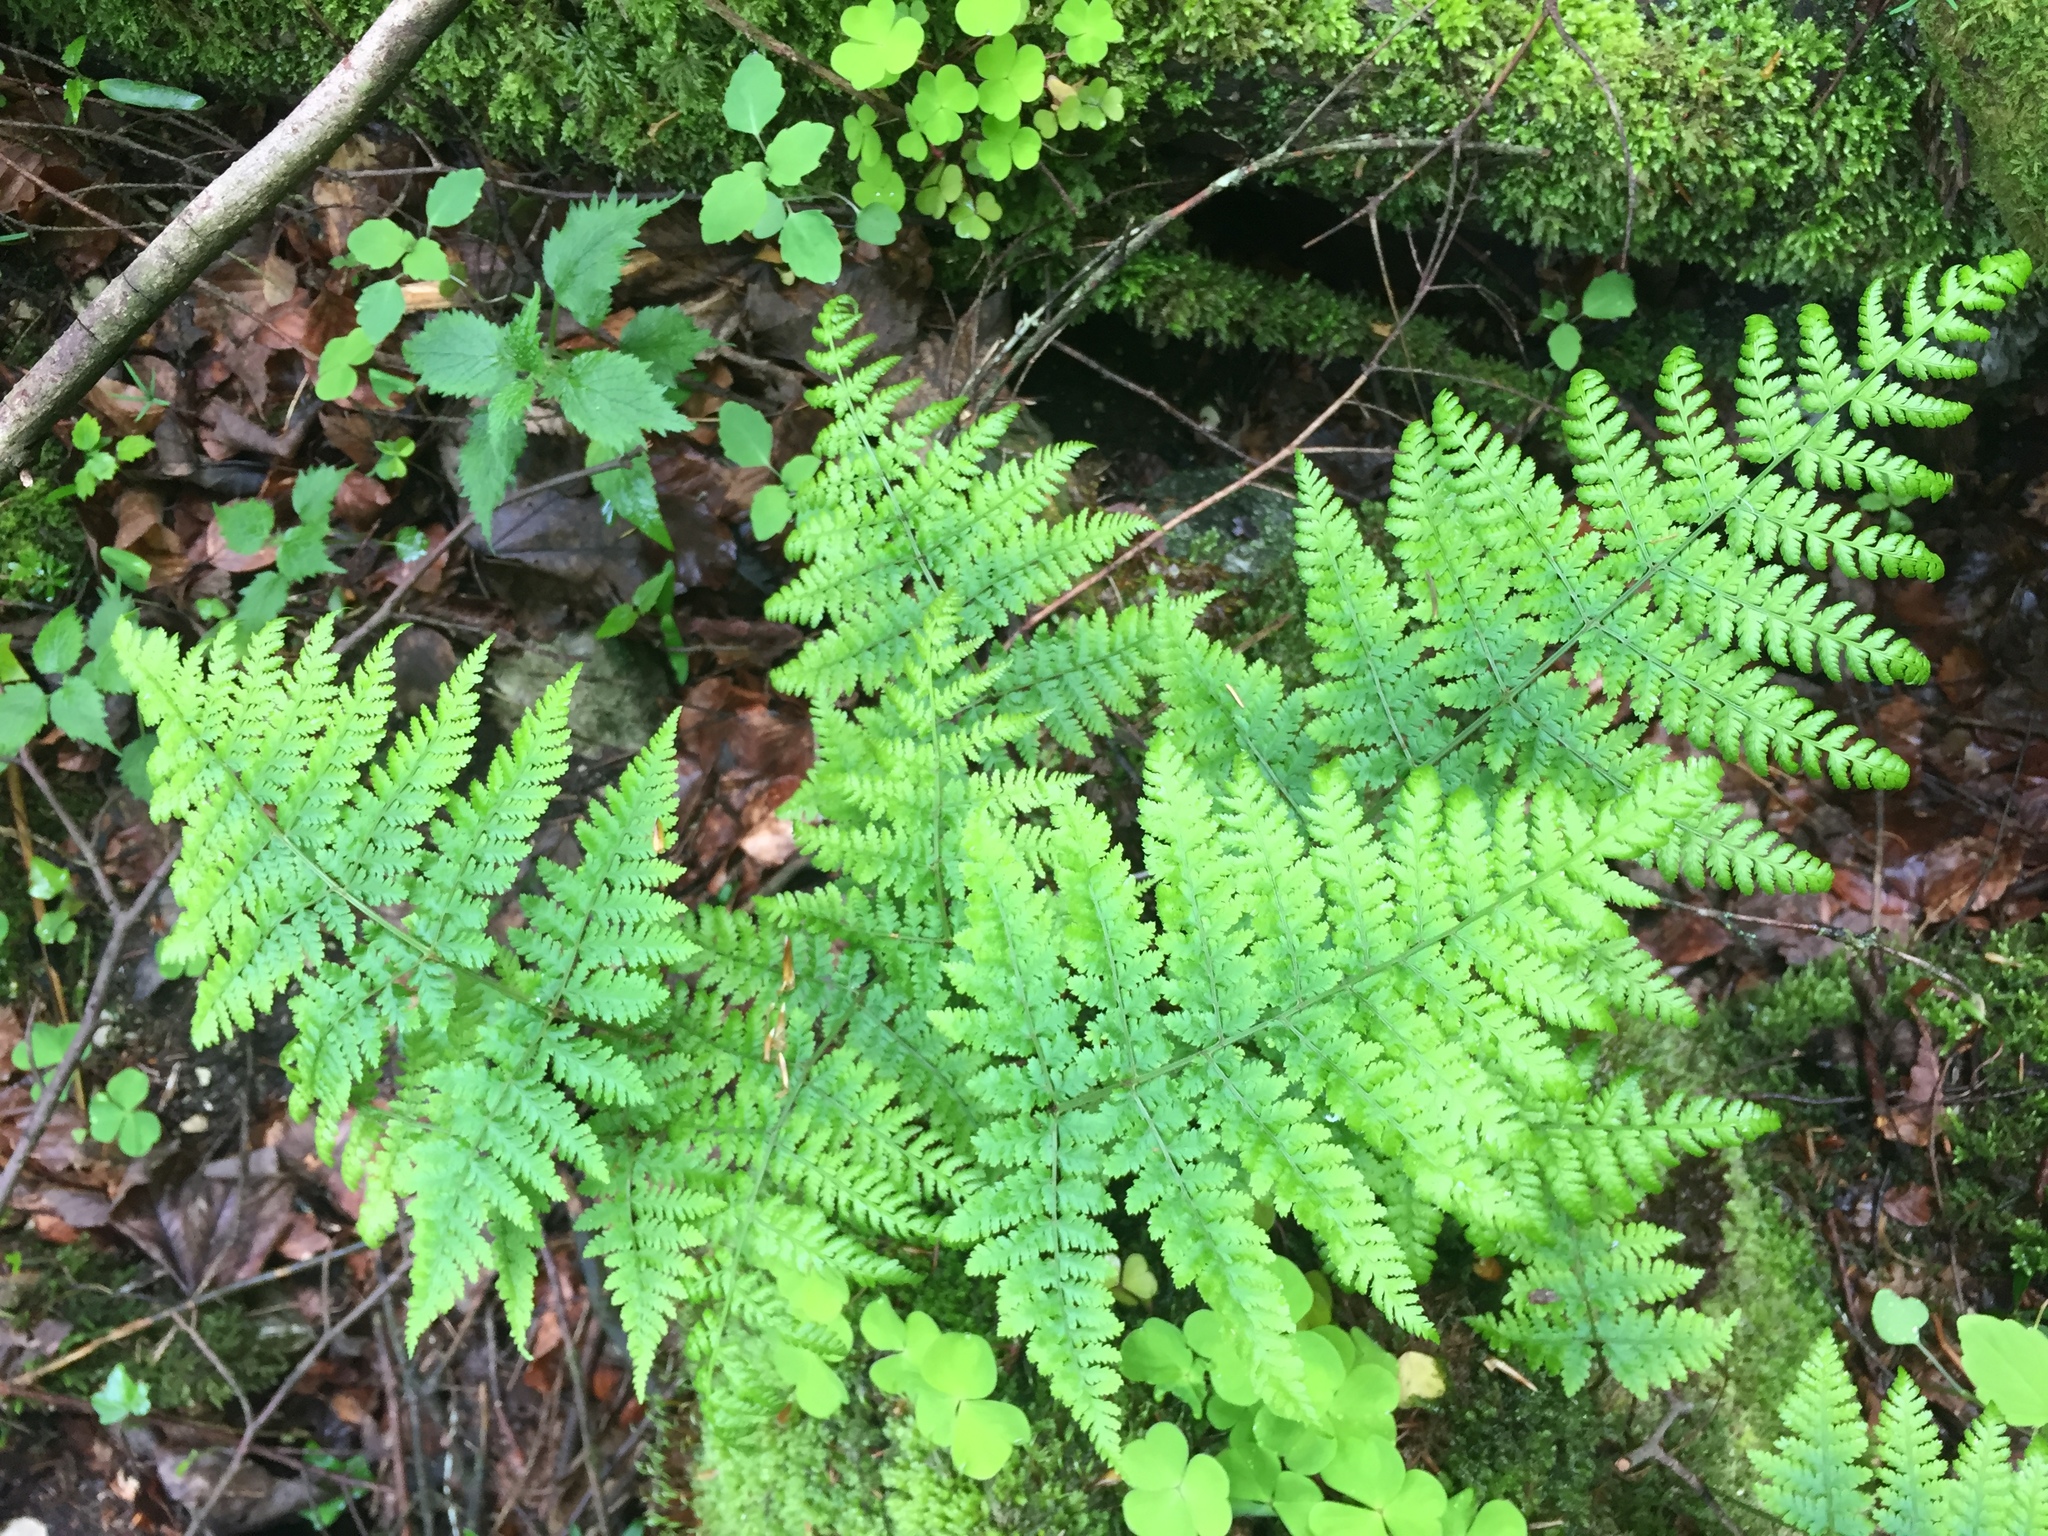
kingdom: Plantae
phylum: Tracheophyta
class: Polypodiopsida
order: Polypodiales
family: Dryopteridaceae
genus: Dryopteris
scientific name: Dryopteris carthusiana
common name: Narrow buckler-fern
